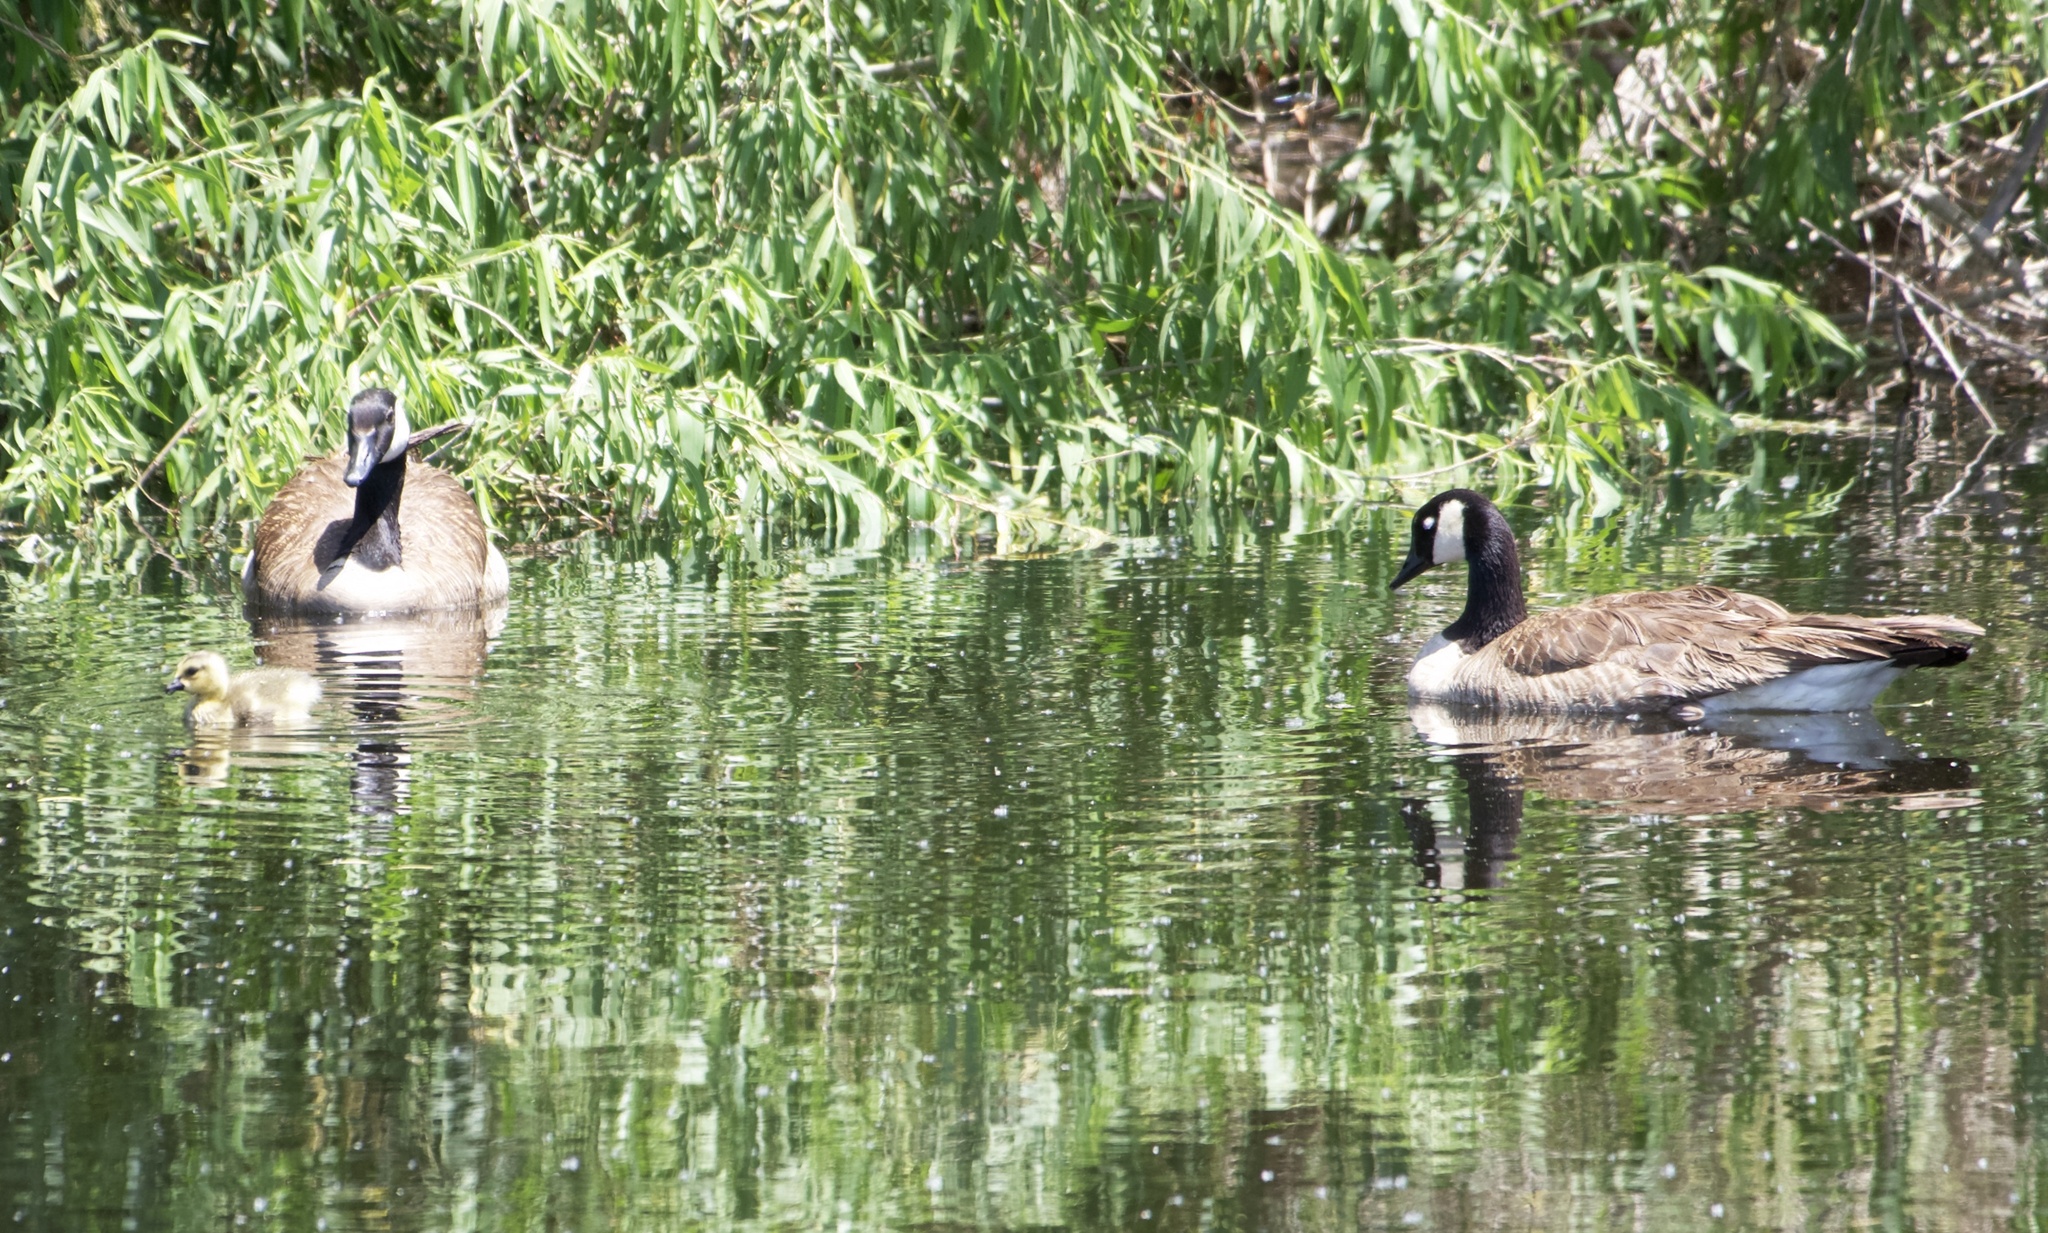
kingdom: Animalia
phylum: Chordata
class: Aves
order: Anseriformes
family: Anatidae
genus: Branta
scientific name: Branta canadensis
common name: Canada goose
